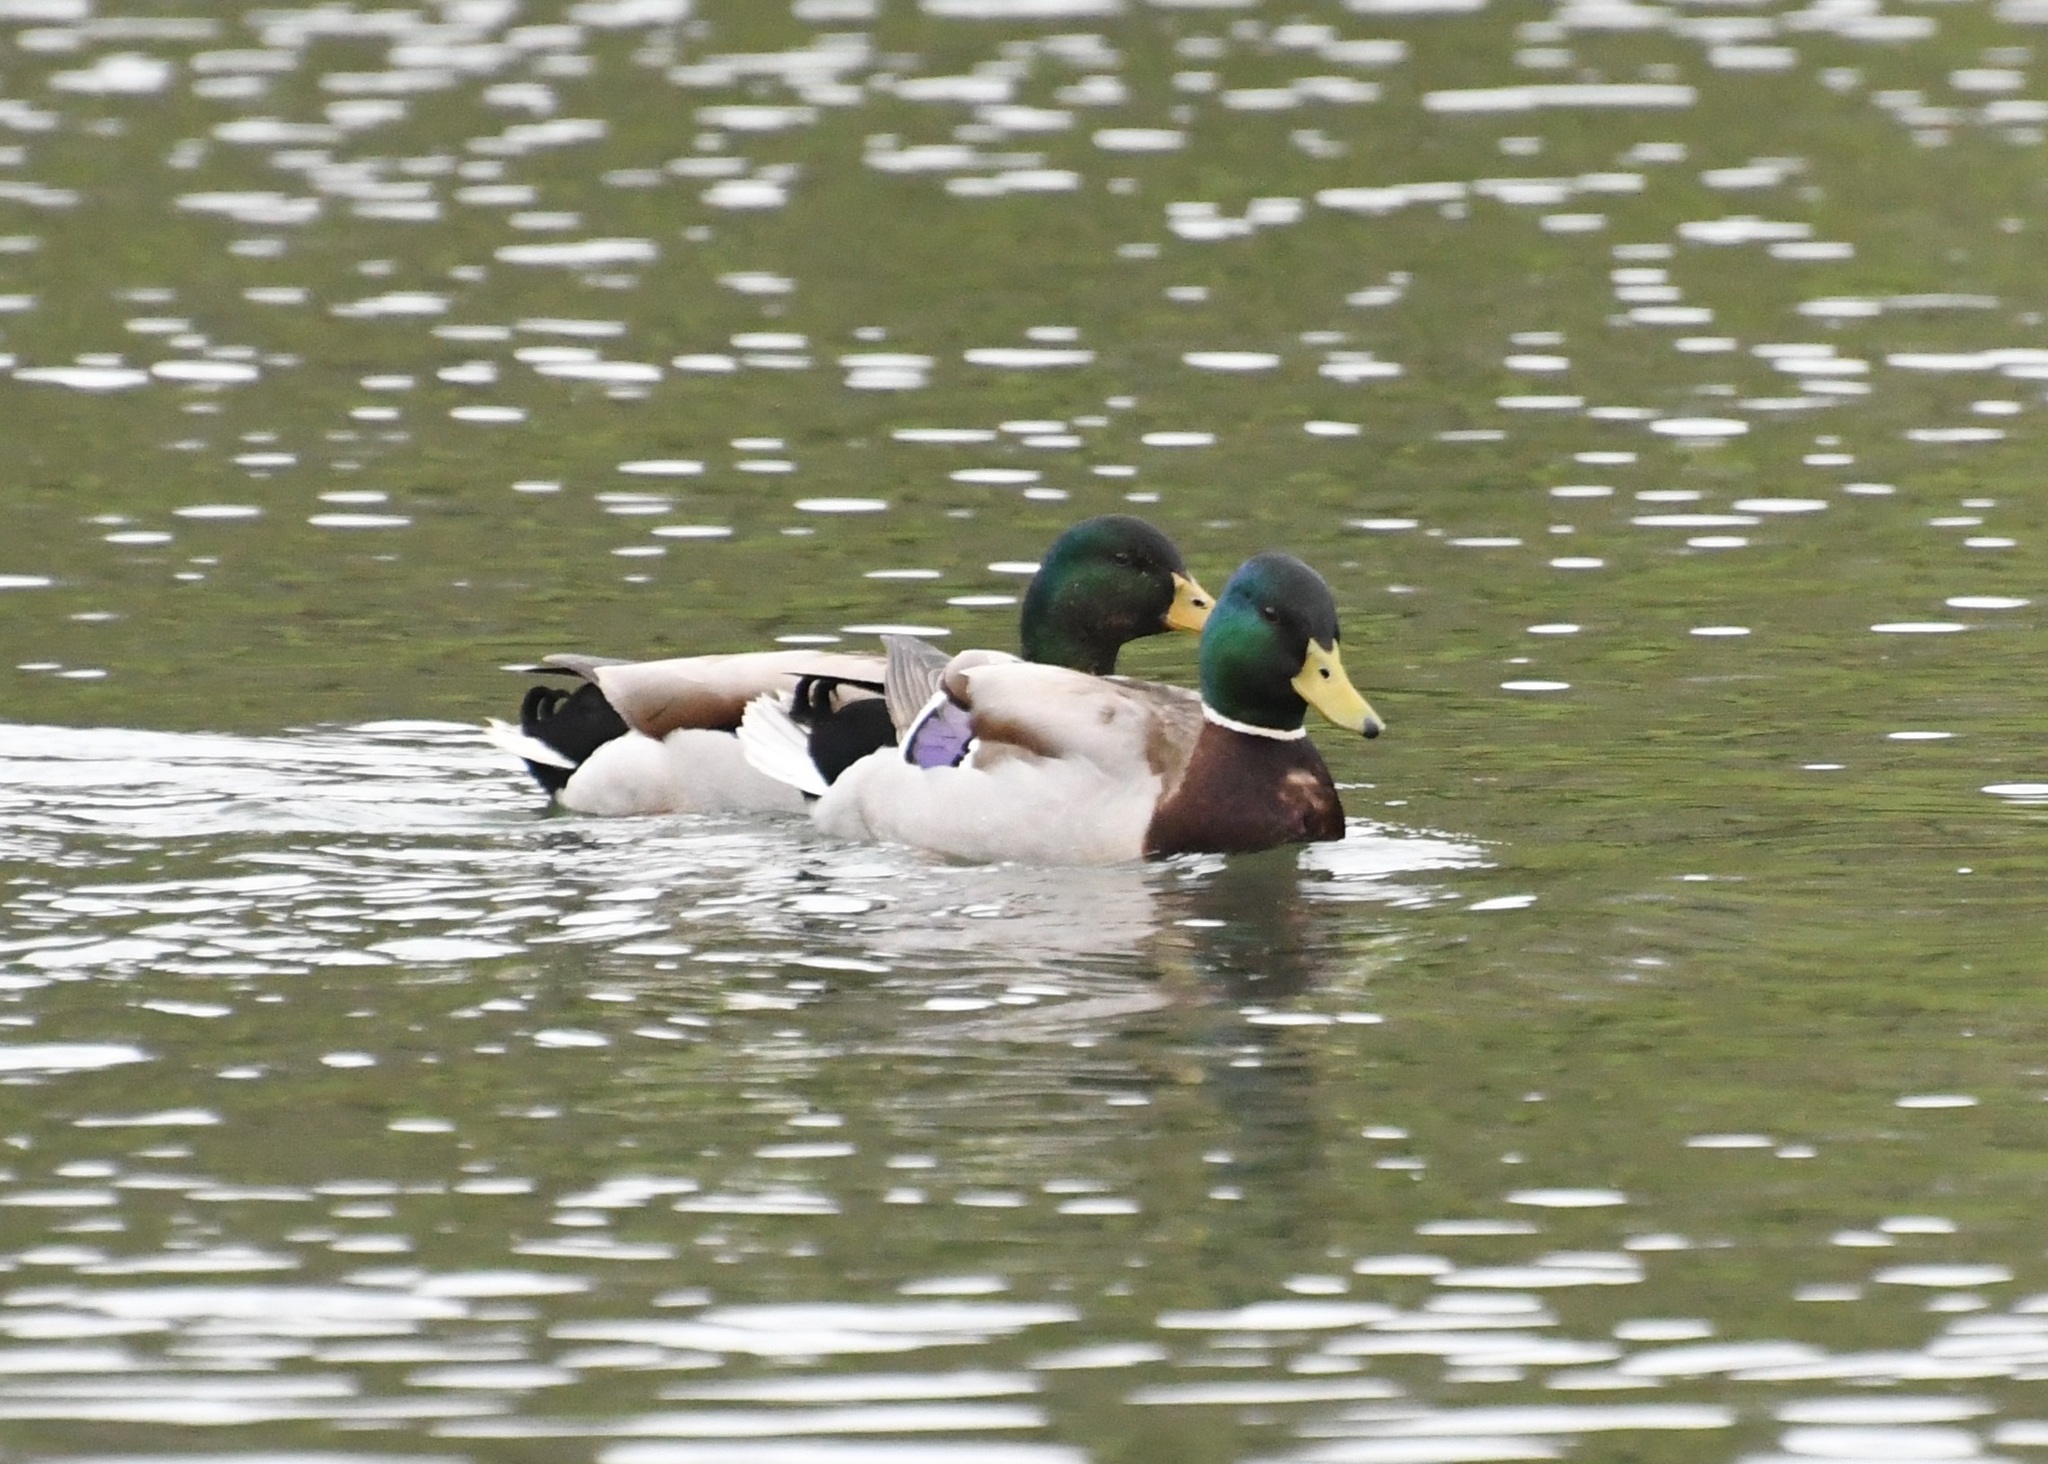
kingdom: Animalia
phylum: Chordata
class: Aves
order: Anseriformes
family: Anatidae
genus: Anas
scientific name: Anas platyrhynchos
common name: Mallard
